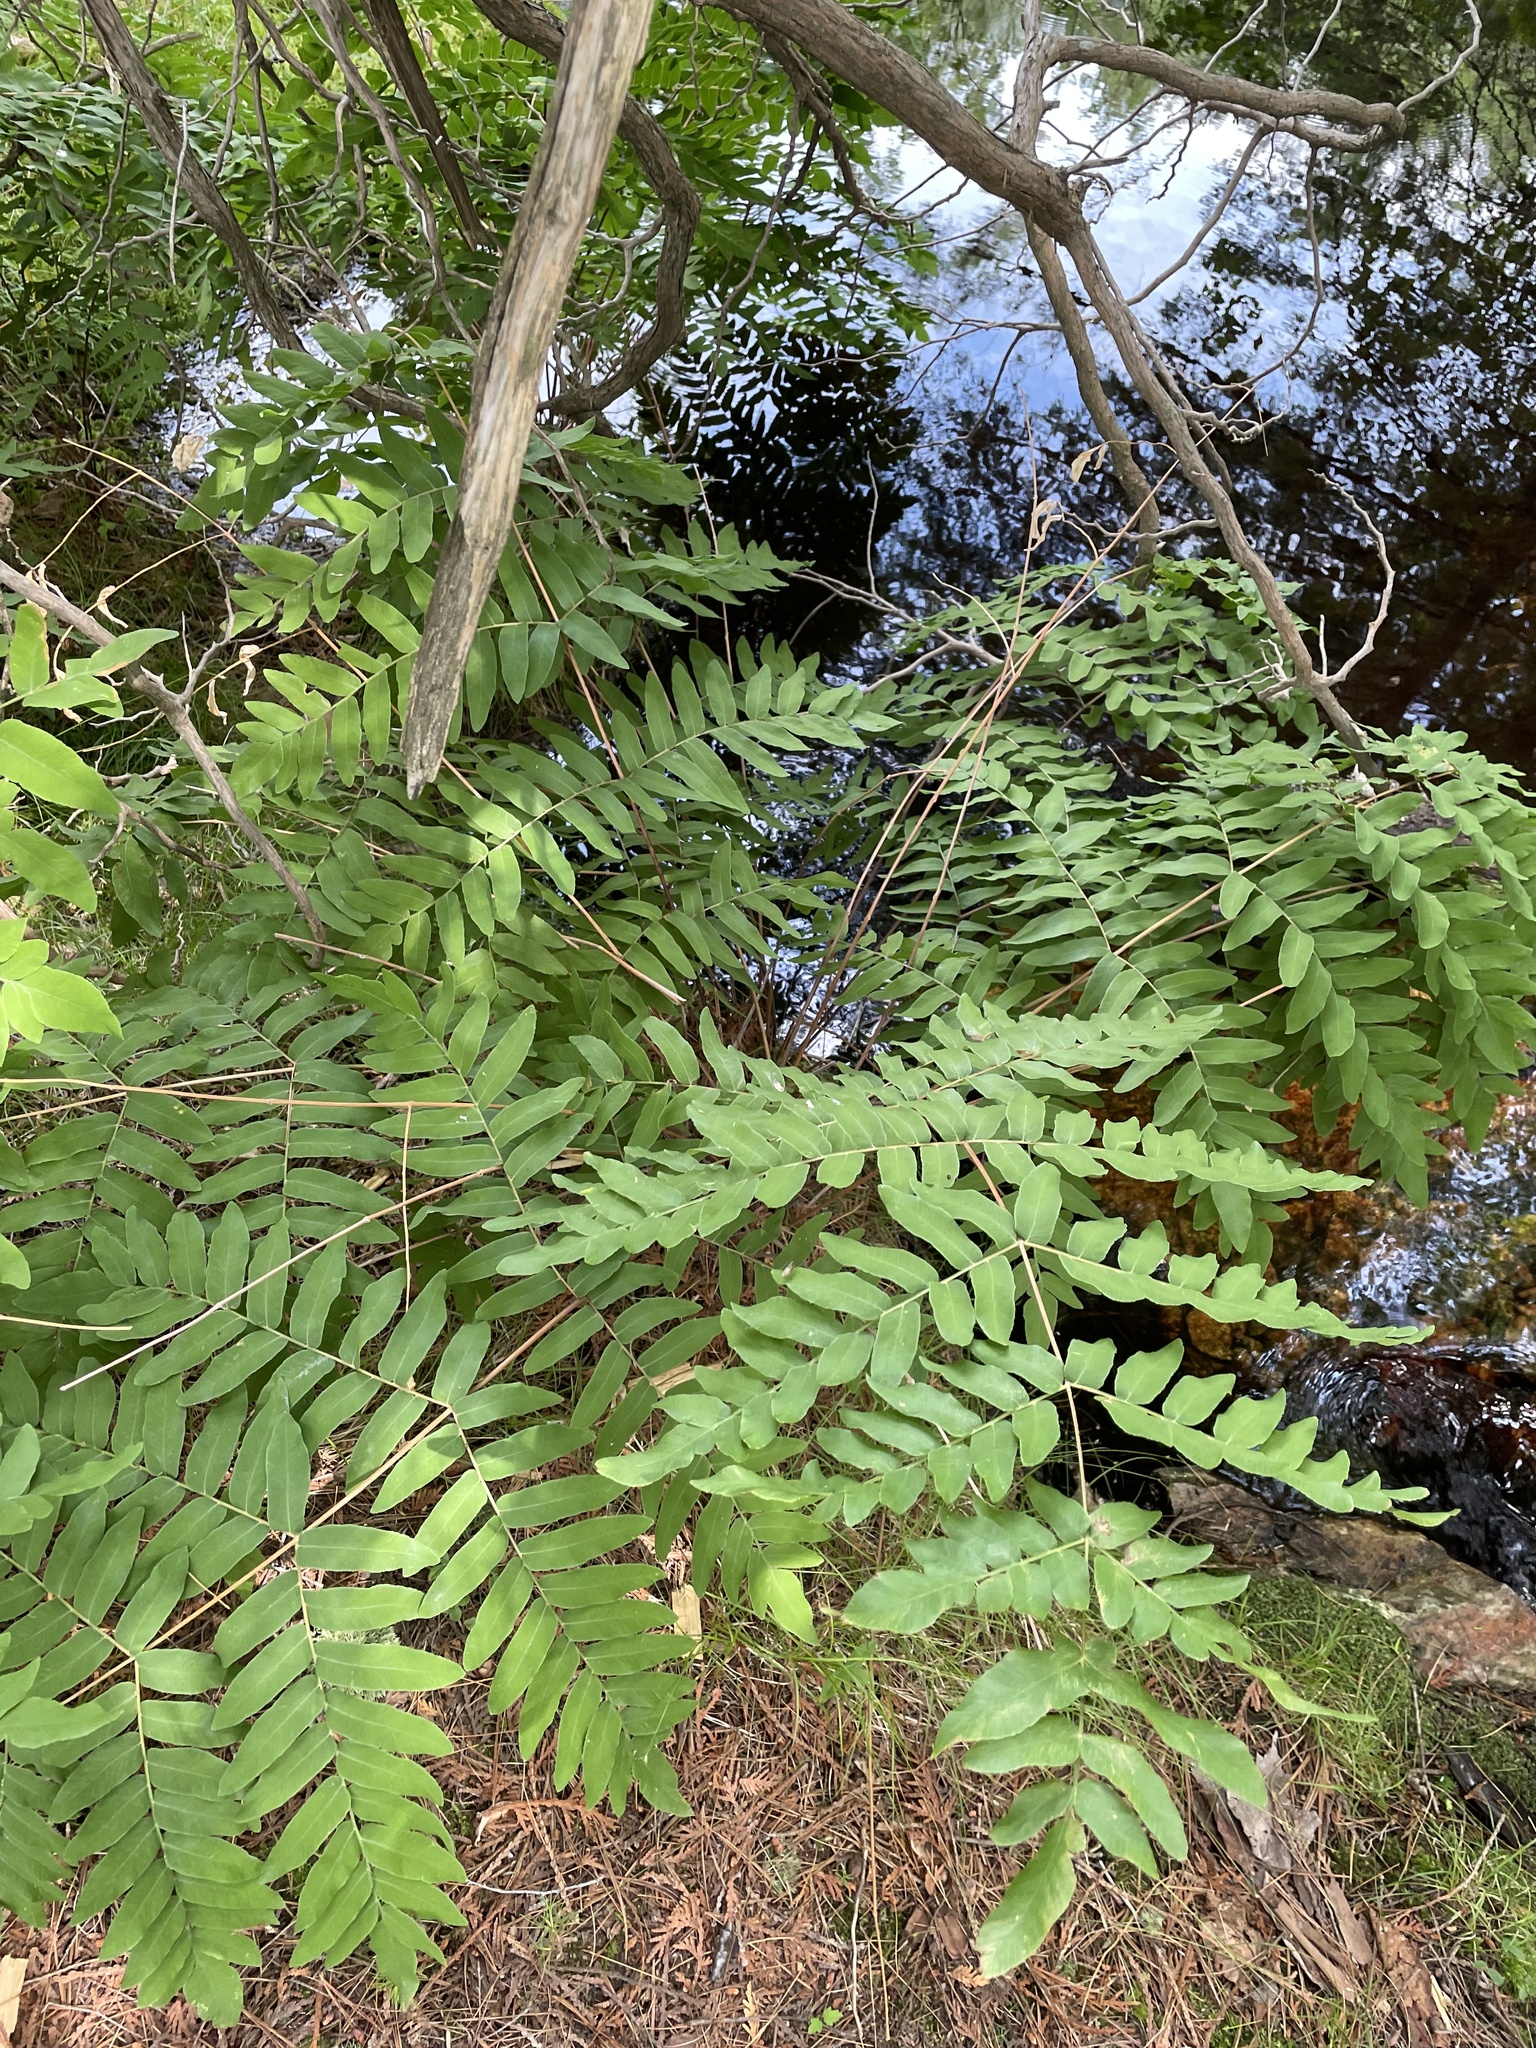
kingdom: Plantae
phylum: Tracheophyta
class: Polypodiopsida
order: Osmundales
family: Osmundaceae
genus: Osmunda
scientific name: Osmunda spectabilis
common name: American royal fern
